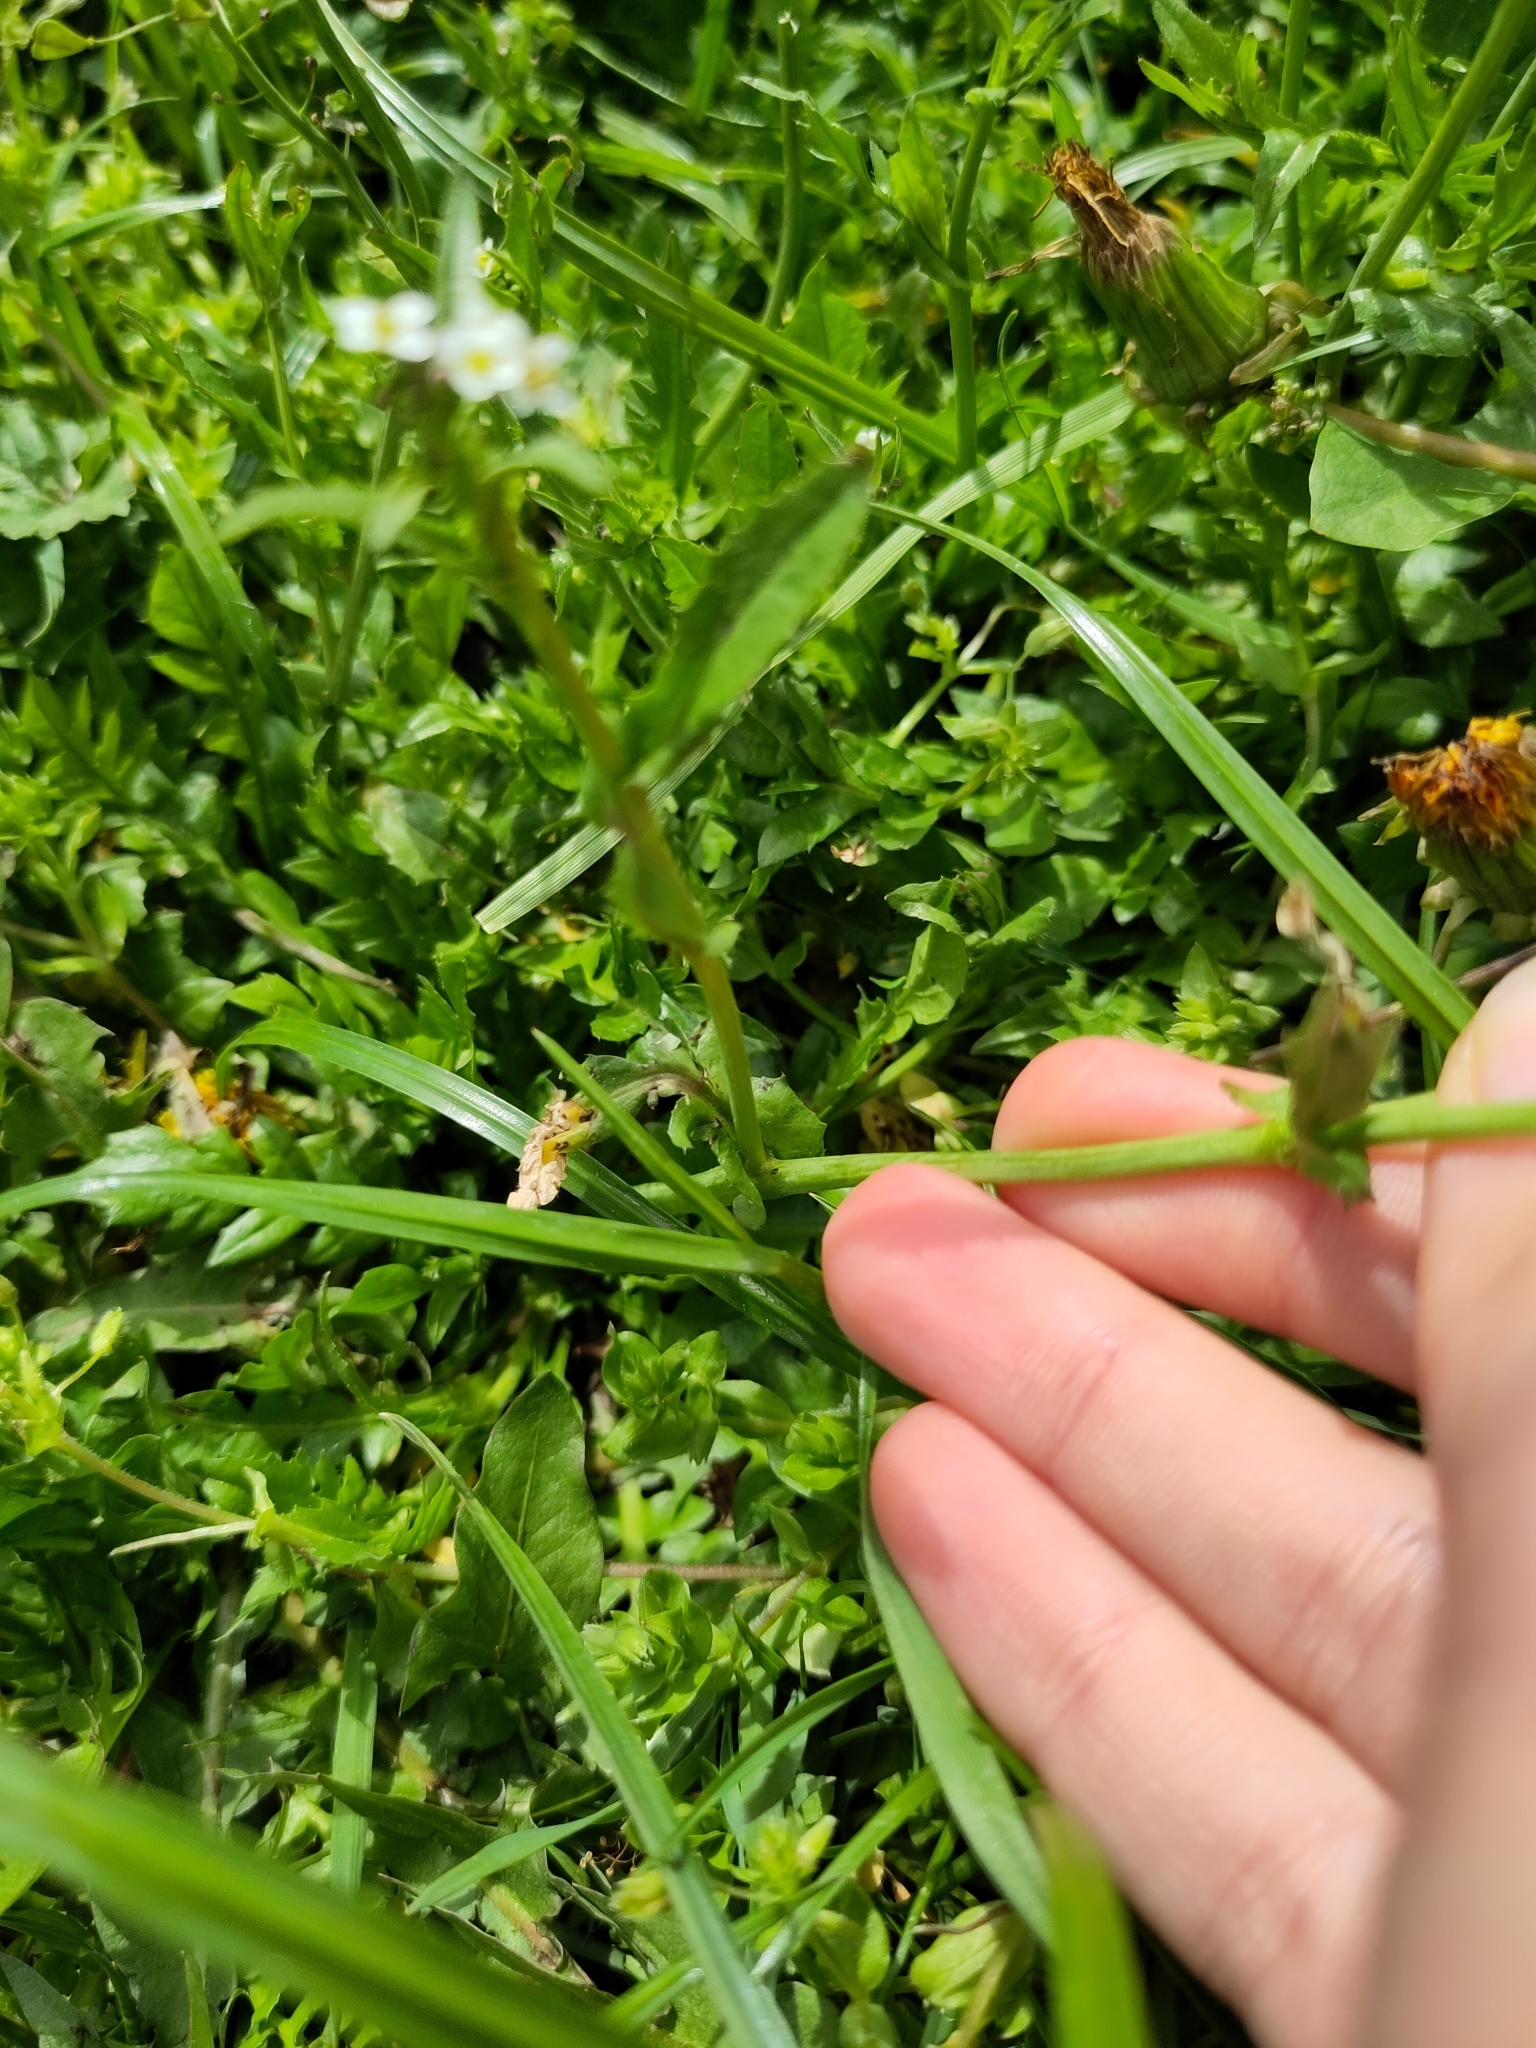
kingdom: Plantae
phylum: Tracheophyta
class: Magnoliopsida
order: Brassicales
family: Brassicaceae
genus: Capsella
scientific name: Capsella bursa-pastoris
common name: Shepherd's purse
